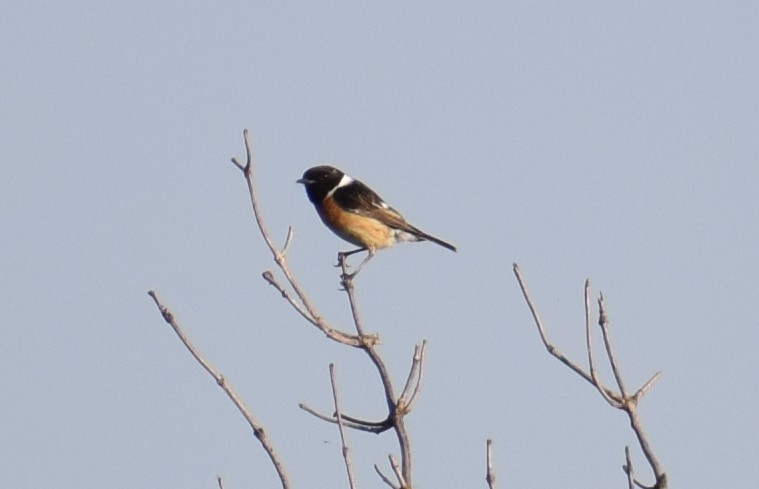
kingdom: Animalia
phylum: Chordata
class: Aves
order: Passeriformes
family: Muscicapidae
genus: Saxicola
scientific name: Saxicola rubicola
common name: European stonechat
